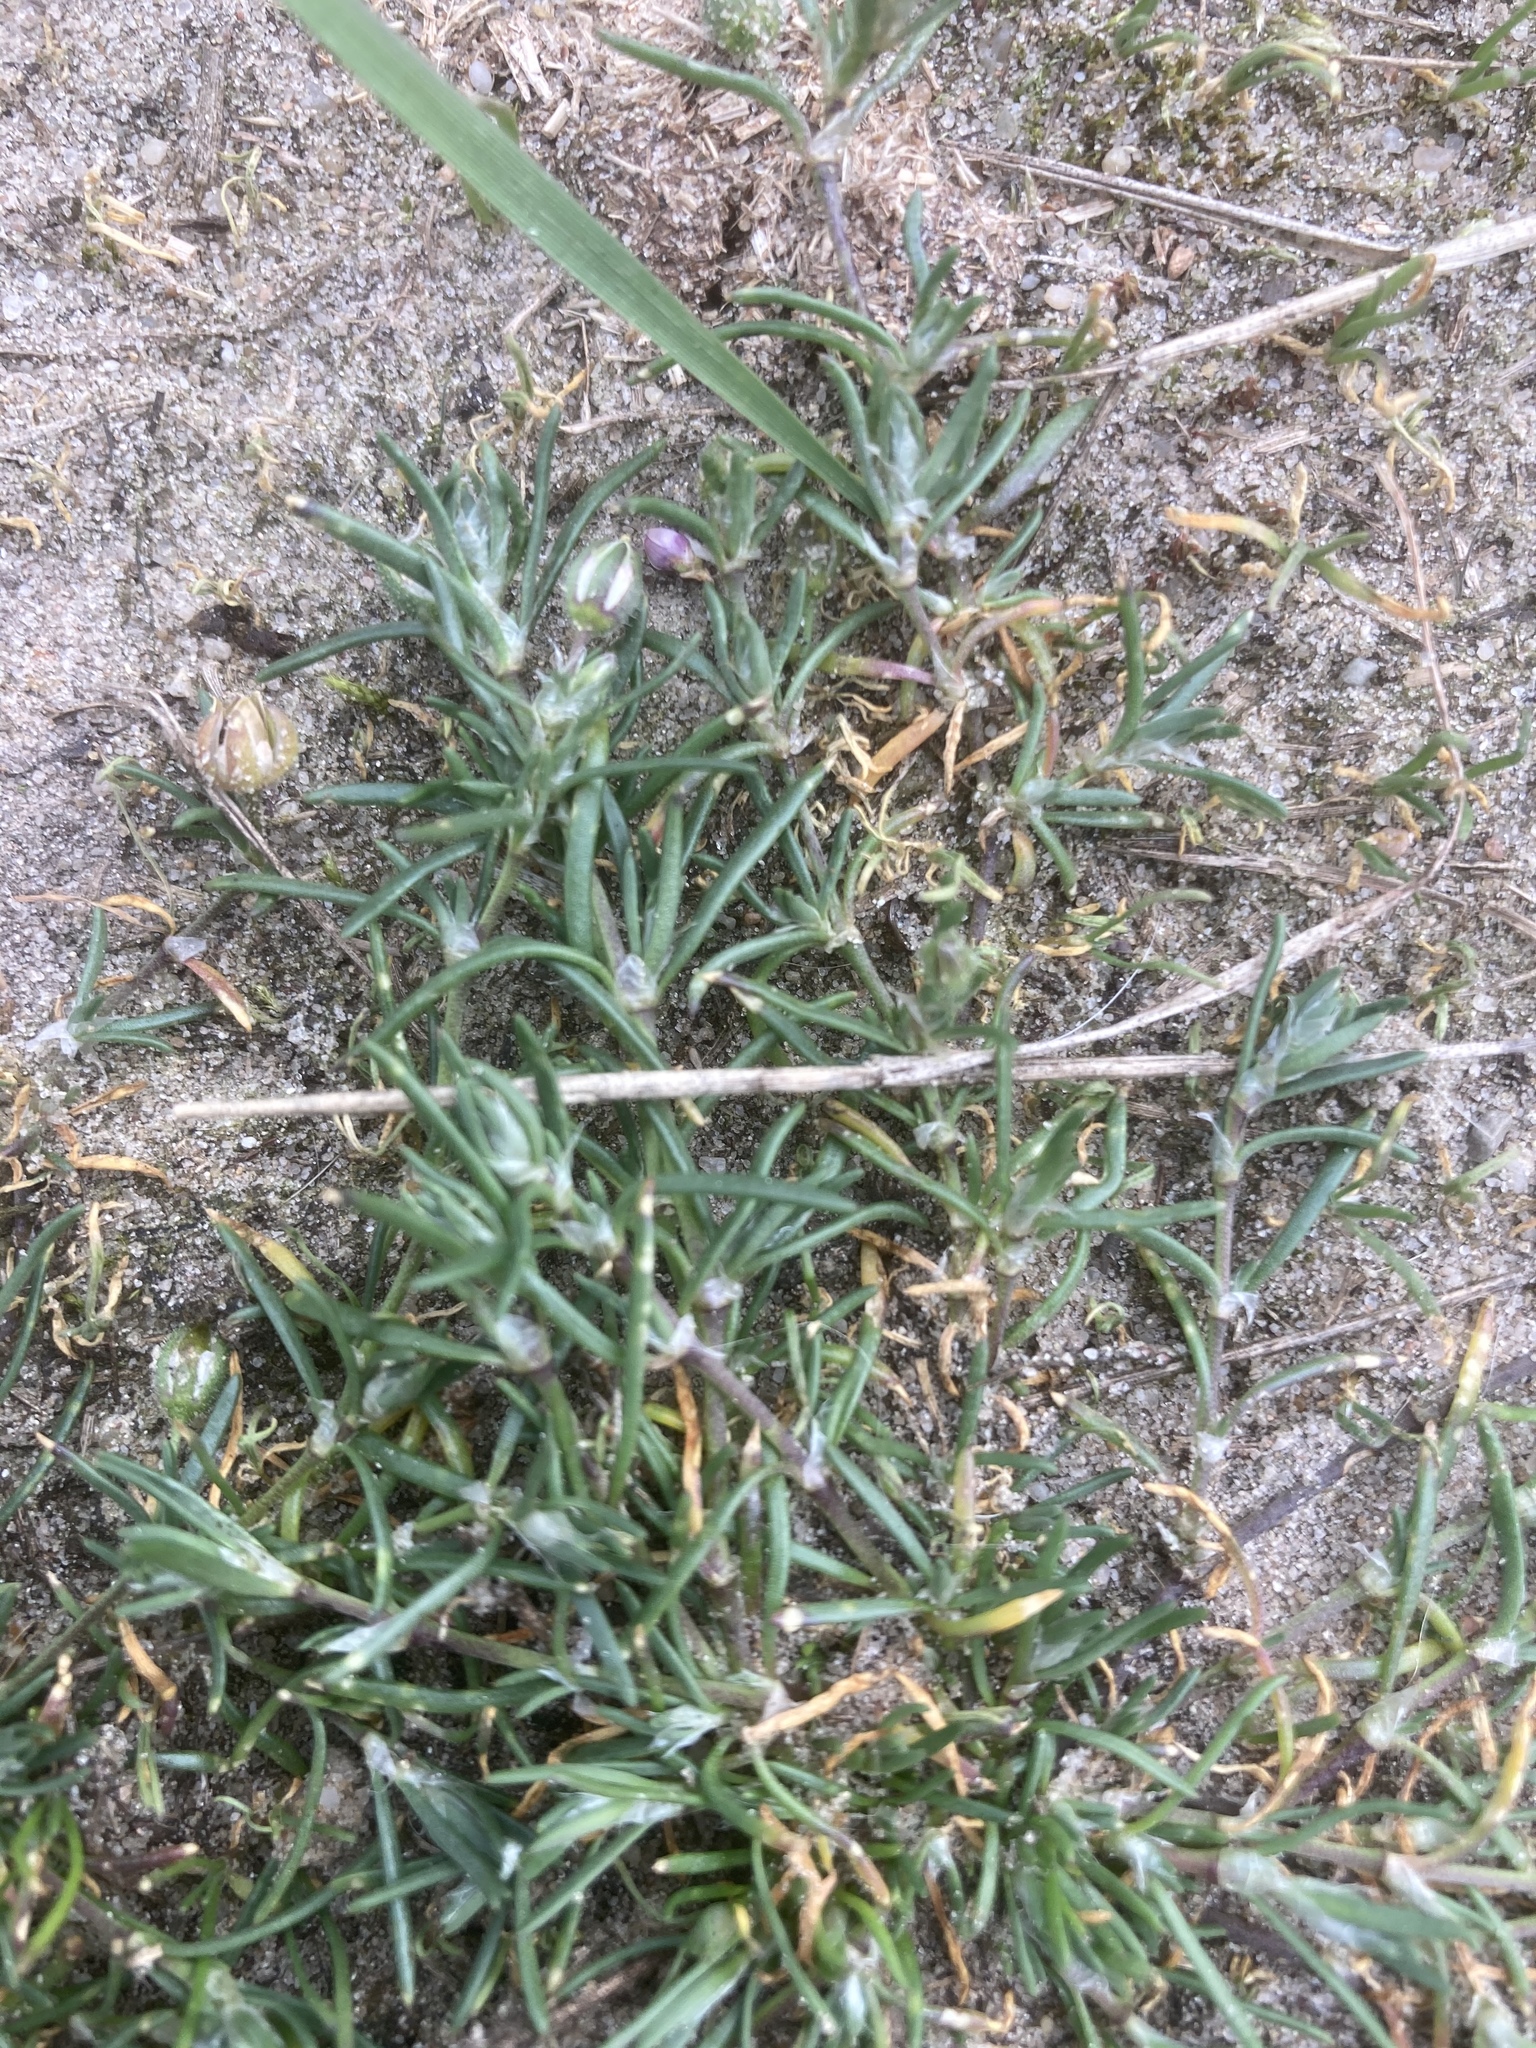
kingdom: Plantae
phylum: Tracheophyta
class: Magnoliopsida
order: Caryophyllales
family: Caryophyllaceae
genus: Spergularia
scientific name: Spergularia rubra
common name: Red sand-spurrey
